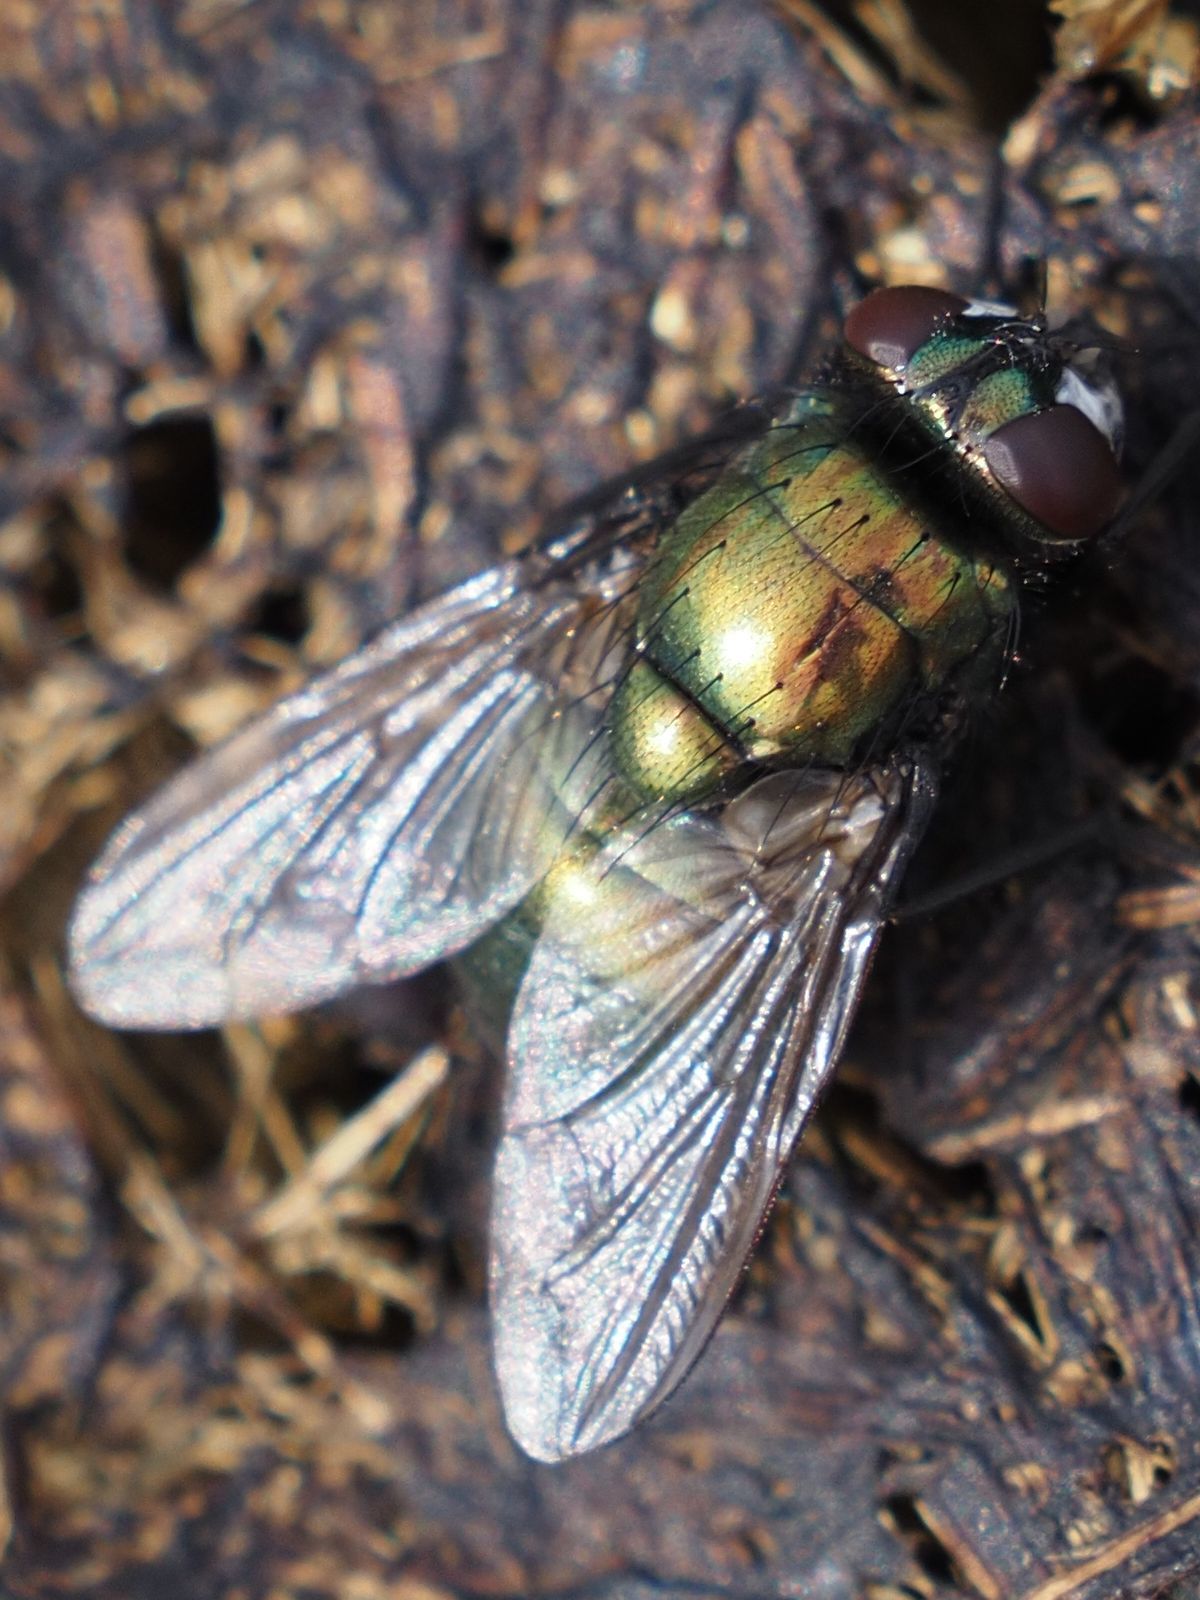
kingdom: Animalia
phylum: Arthropoda
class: Insecta
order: Diptera
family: Muscidae
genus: Neomyia
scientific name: Neomyia cornicina
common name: House fly
